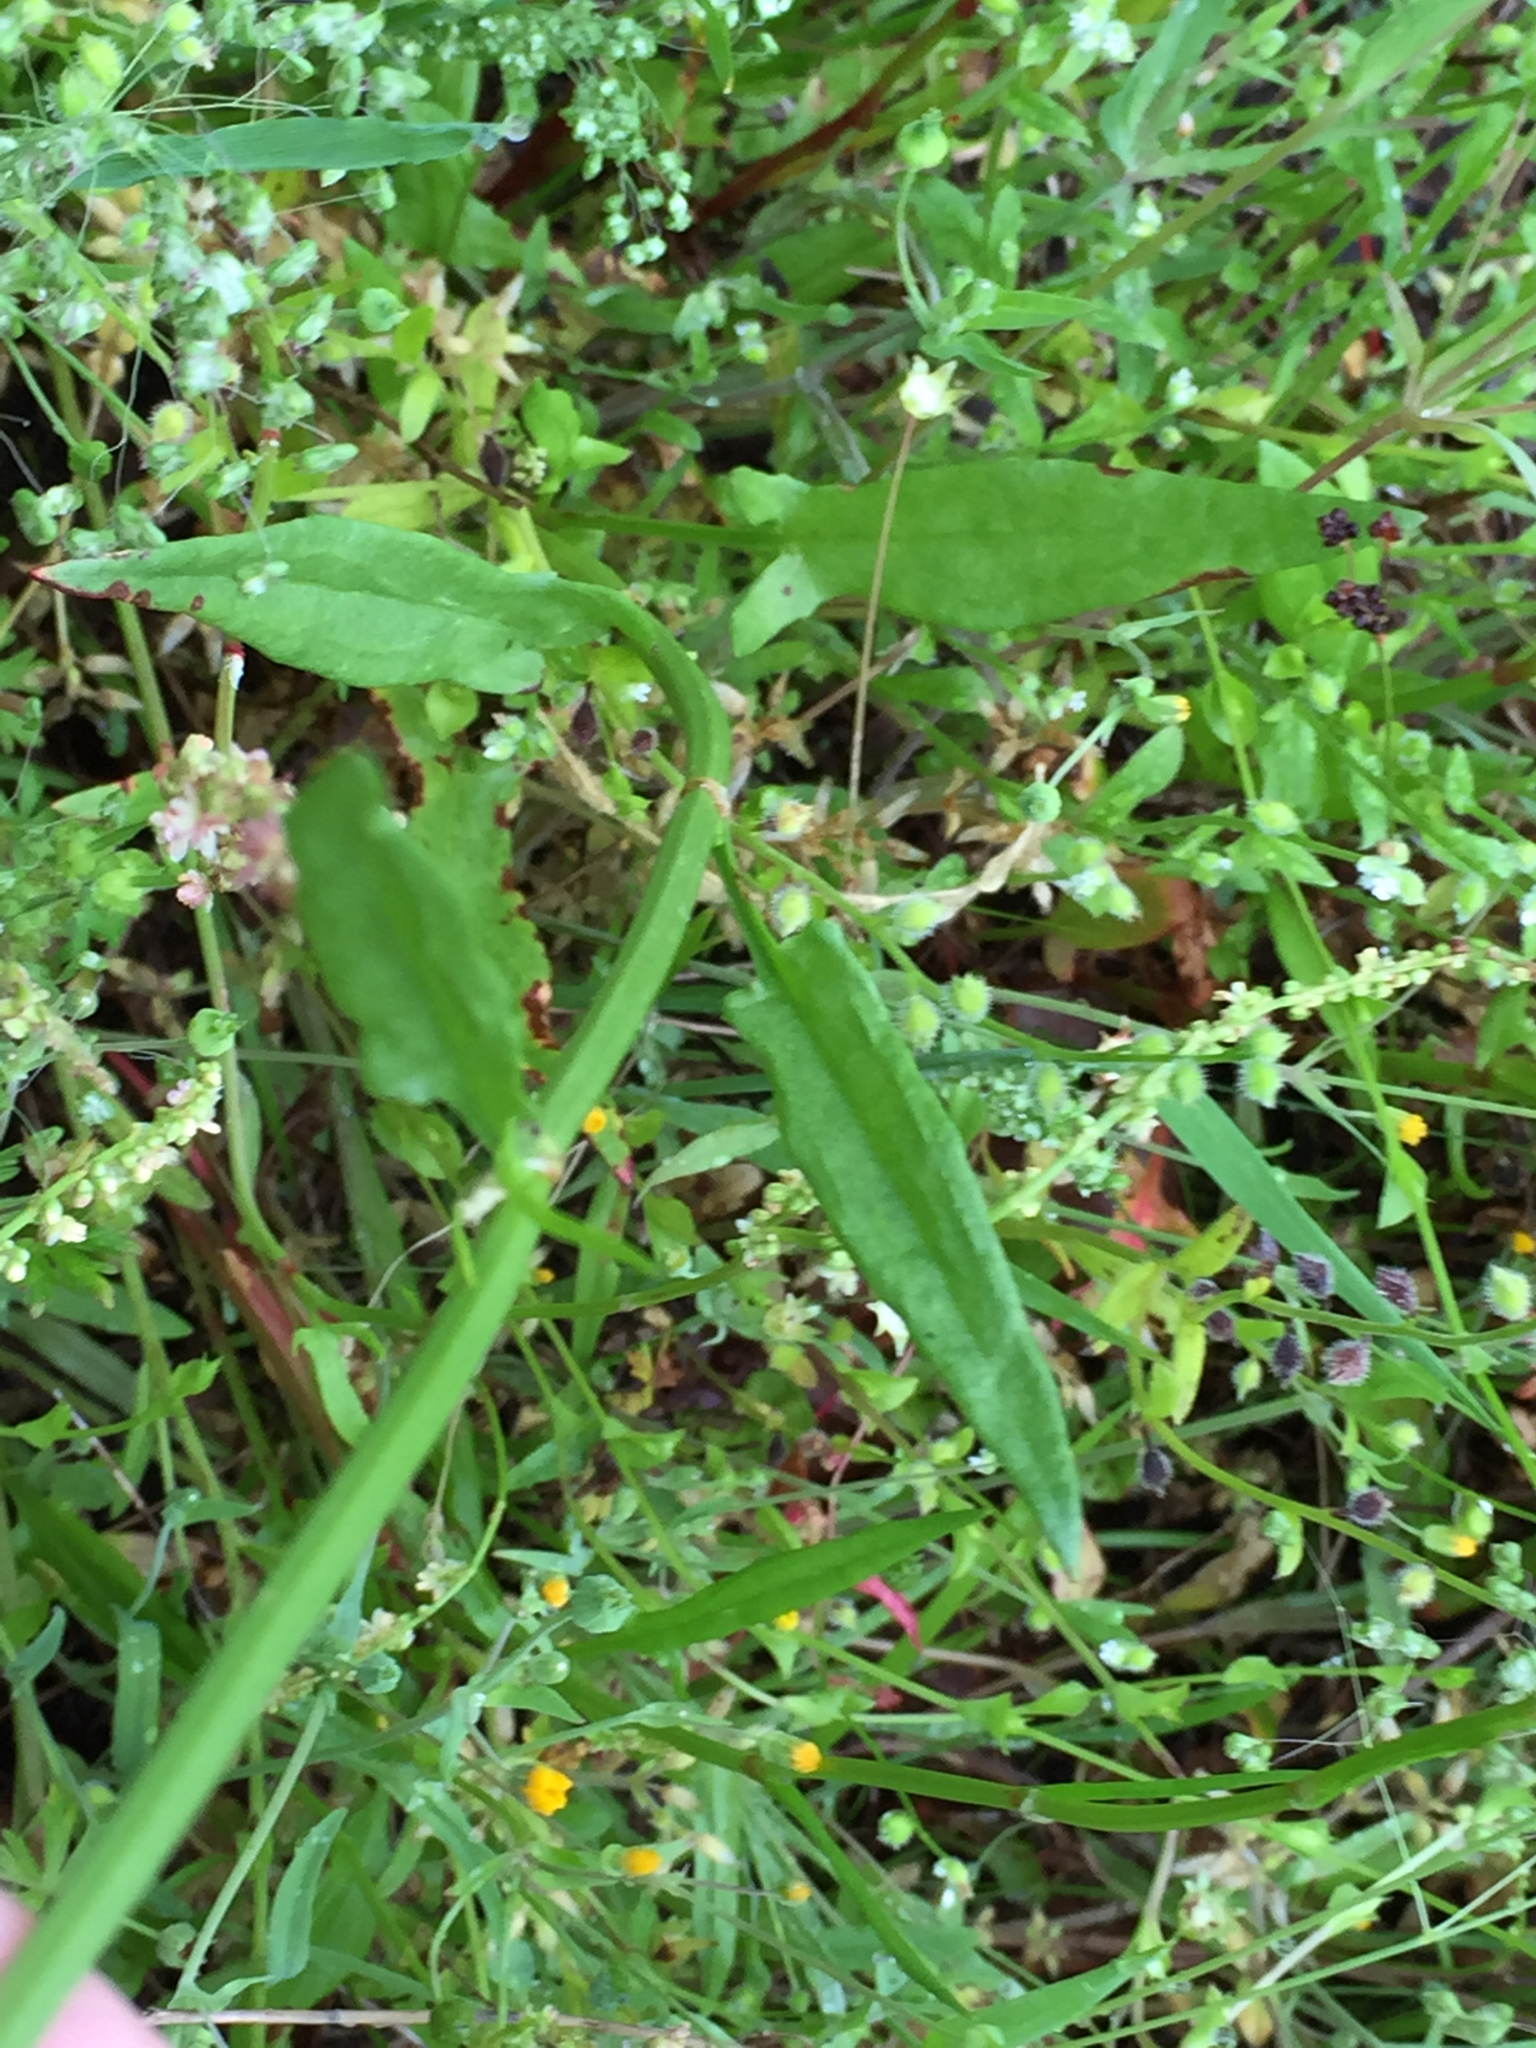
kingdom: Plantae
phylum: Tracheophyta
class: Magnoliopsida
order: Caryophyllales
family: Polygonaceae
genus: Rumex
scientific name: Rumex hastatulus
